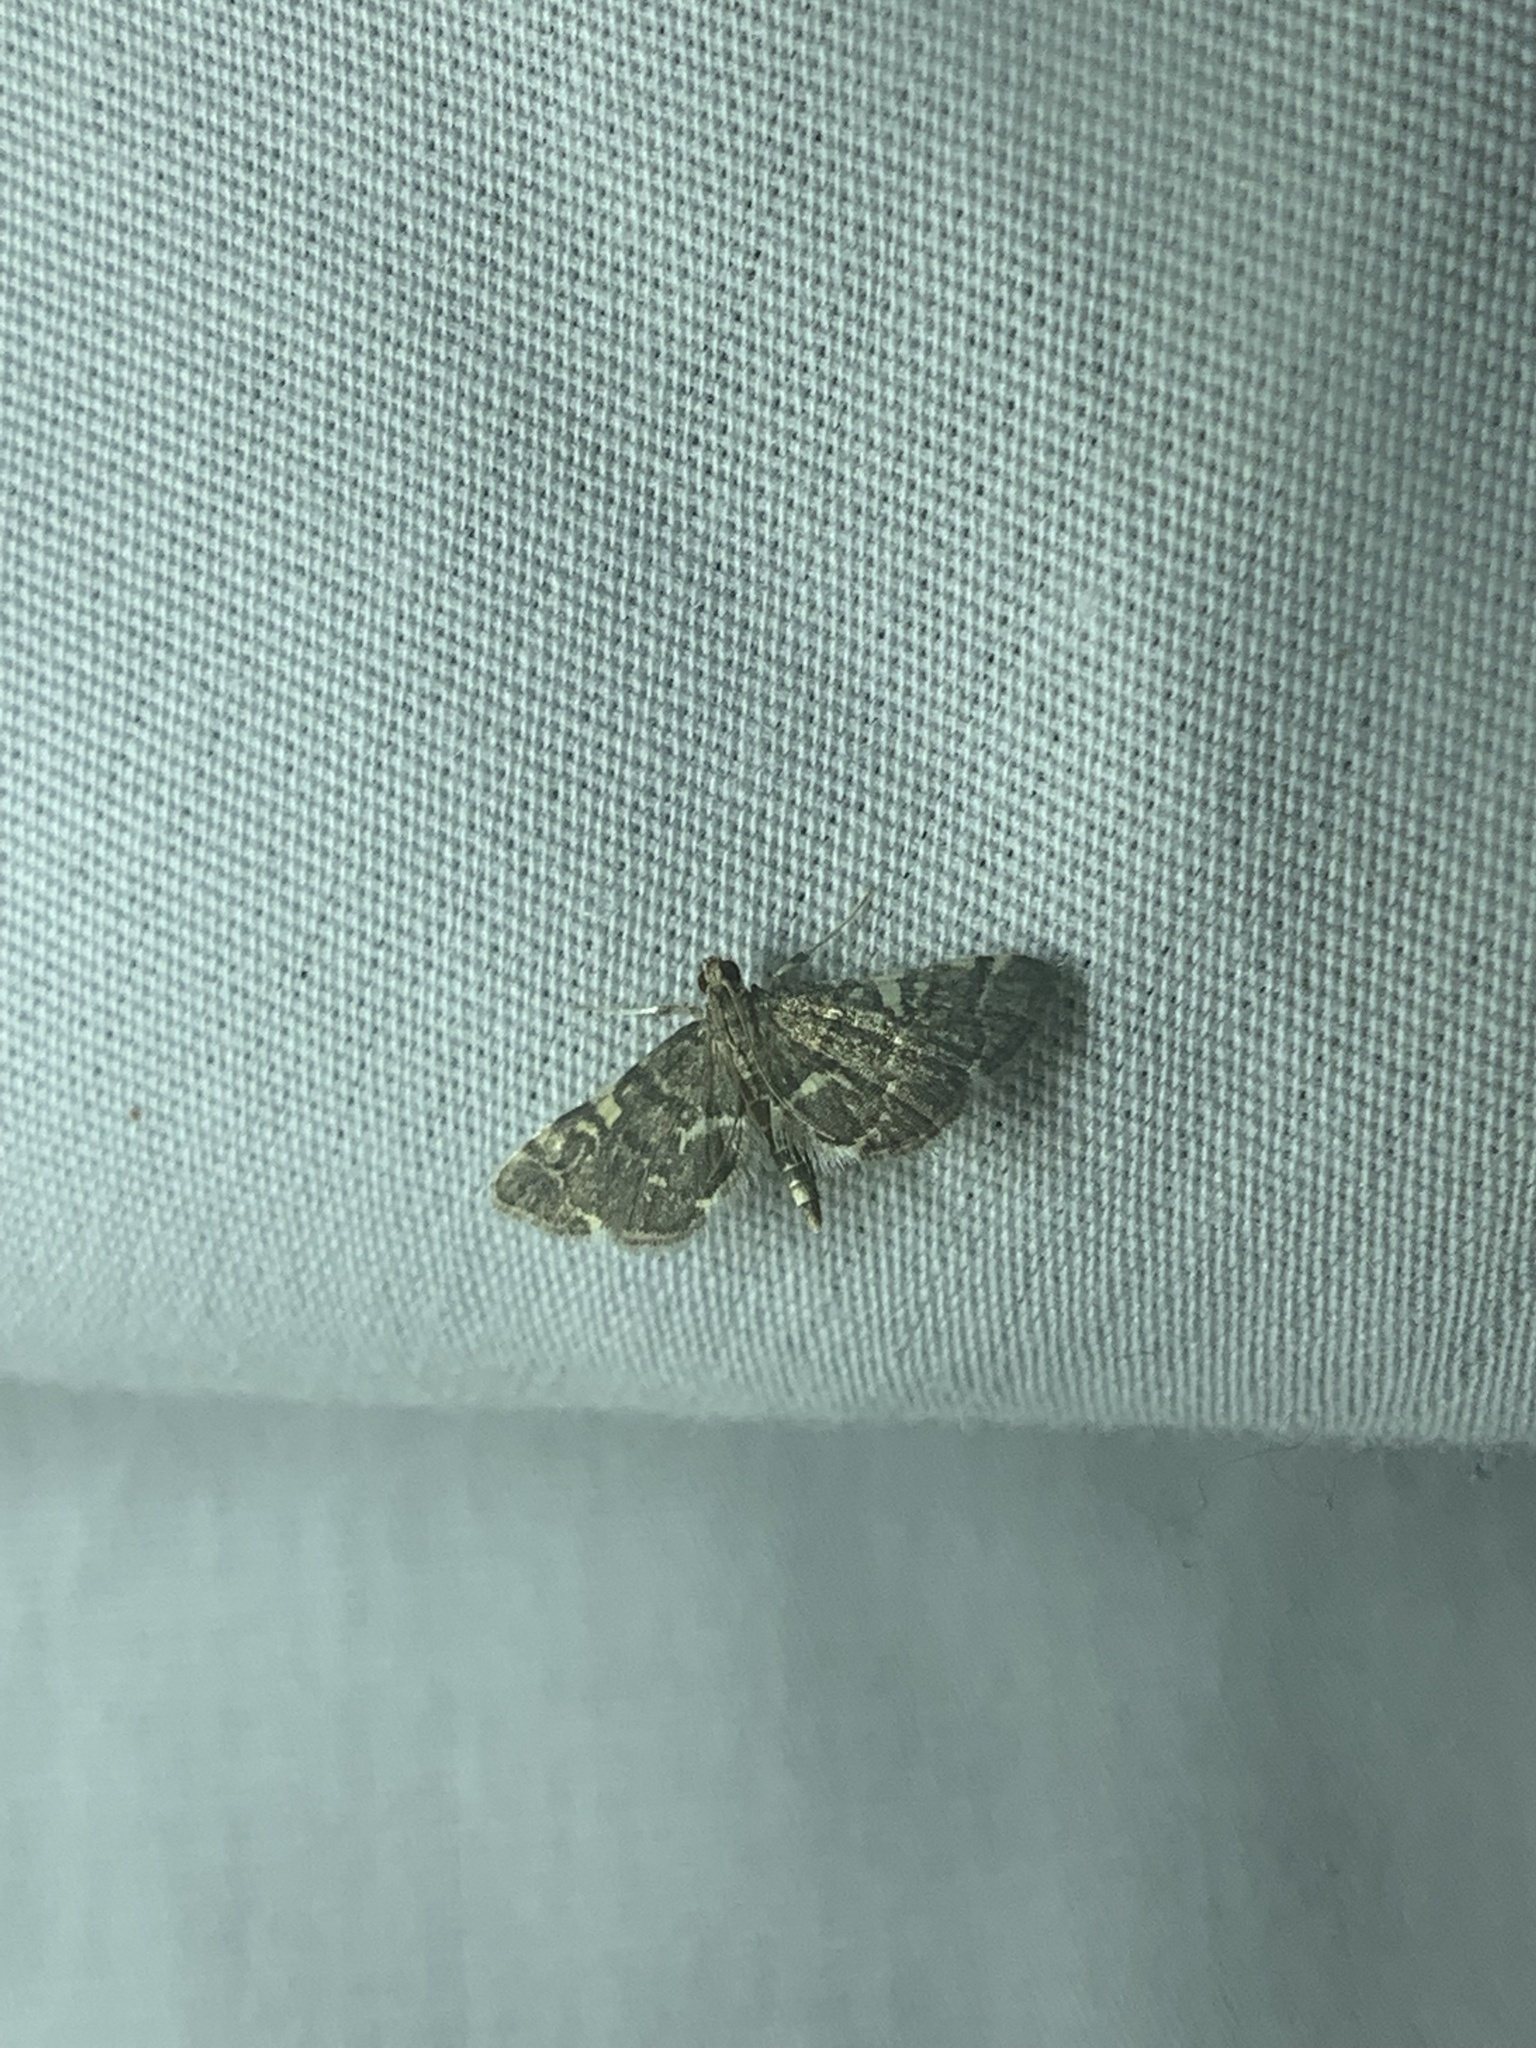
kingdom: Animalia
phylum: Arthropoda
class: Insecta
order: Lepidoptera
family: Crambidae
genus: Anageshna
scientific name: Anageshna primordialis
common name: Yellow-spotted webworm moth
